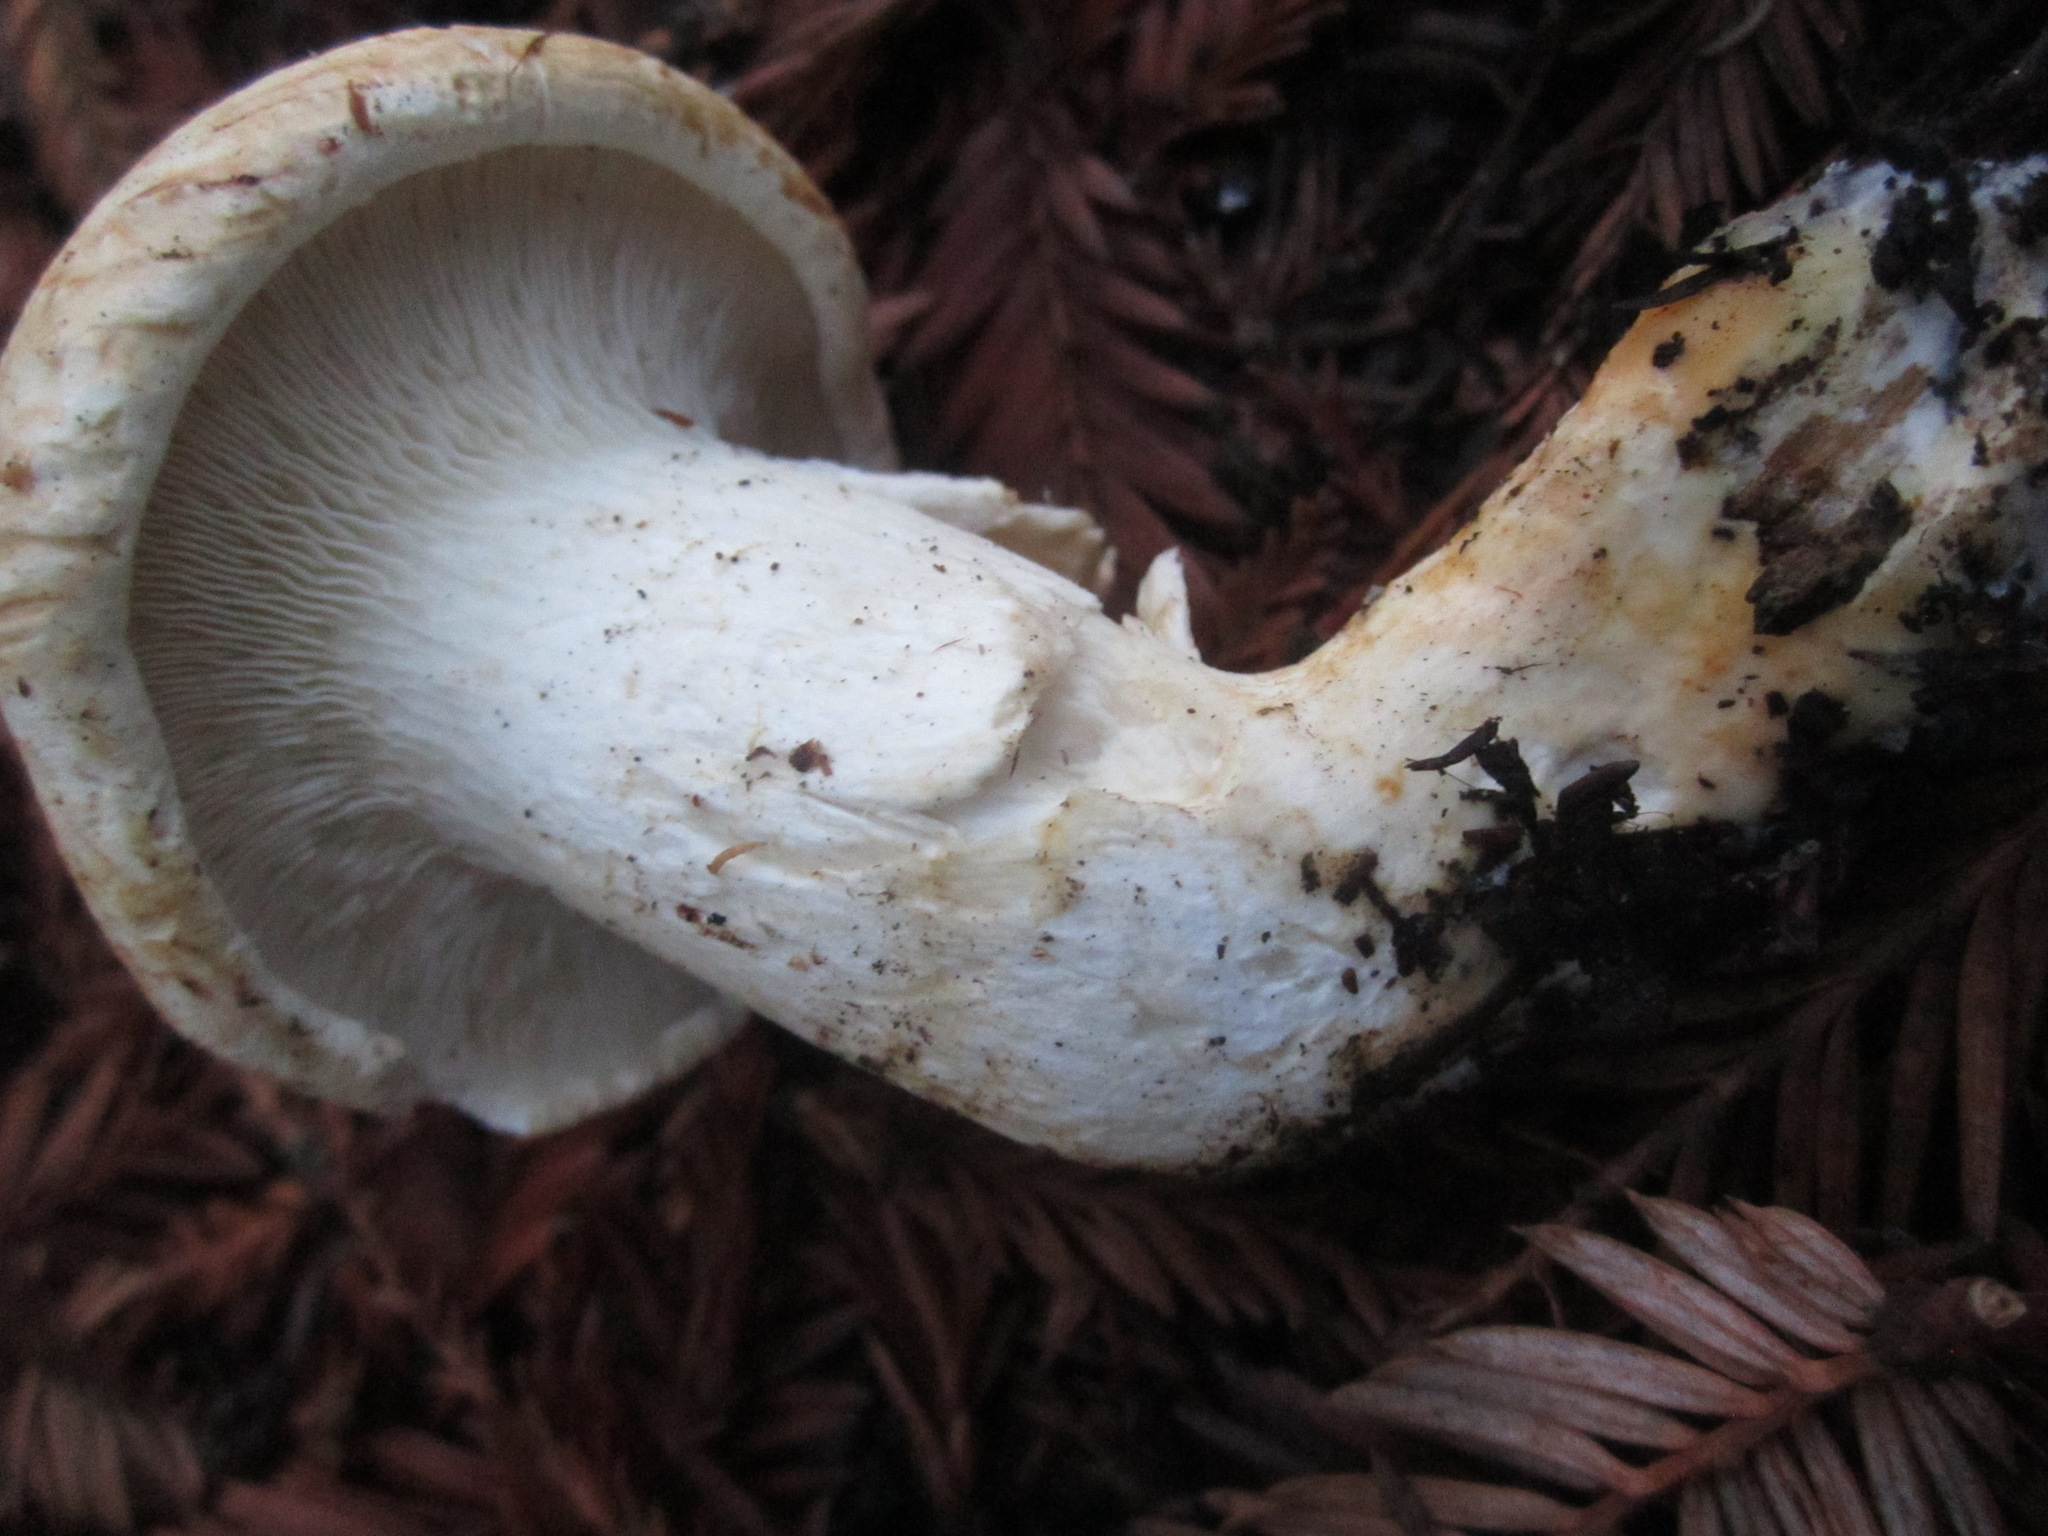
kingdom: Fungi
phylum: Basidiomycota
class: Agaricomycetes
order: Agaricales
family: Tricholomataceae
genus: Leucopaxillus
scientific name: Leucopaxillus albissimus
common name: Large white leucopax
